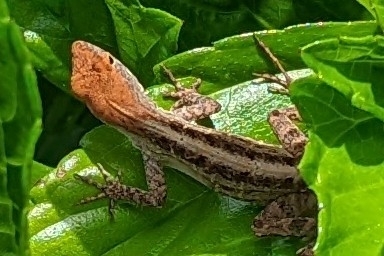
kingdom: Animalia
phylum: Chordata
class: Squamata
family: Dactyloidae
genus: Anolis
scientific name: Anolis sagrei
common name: Brown anole
